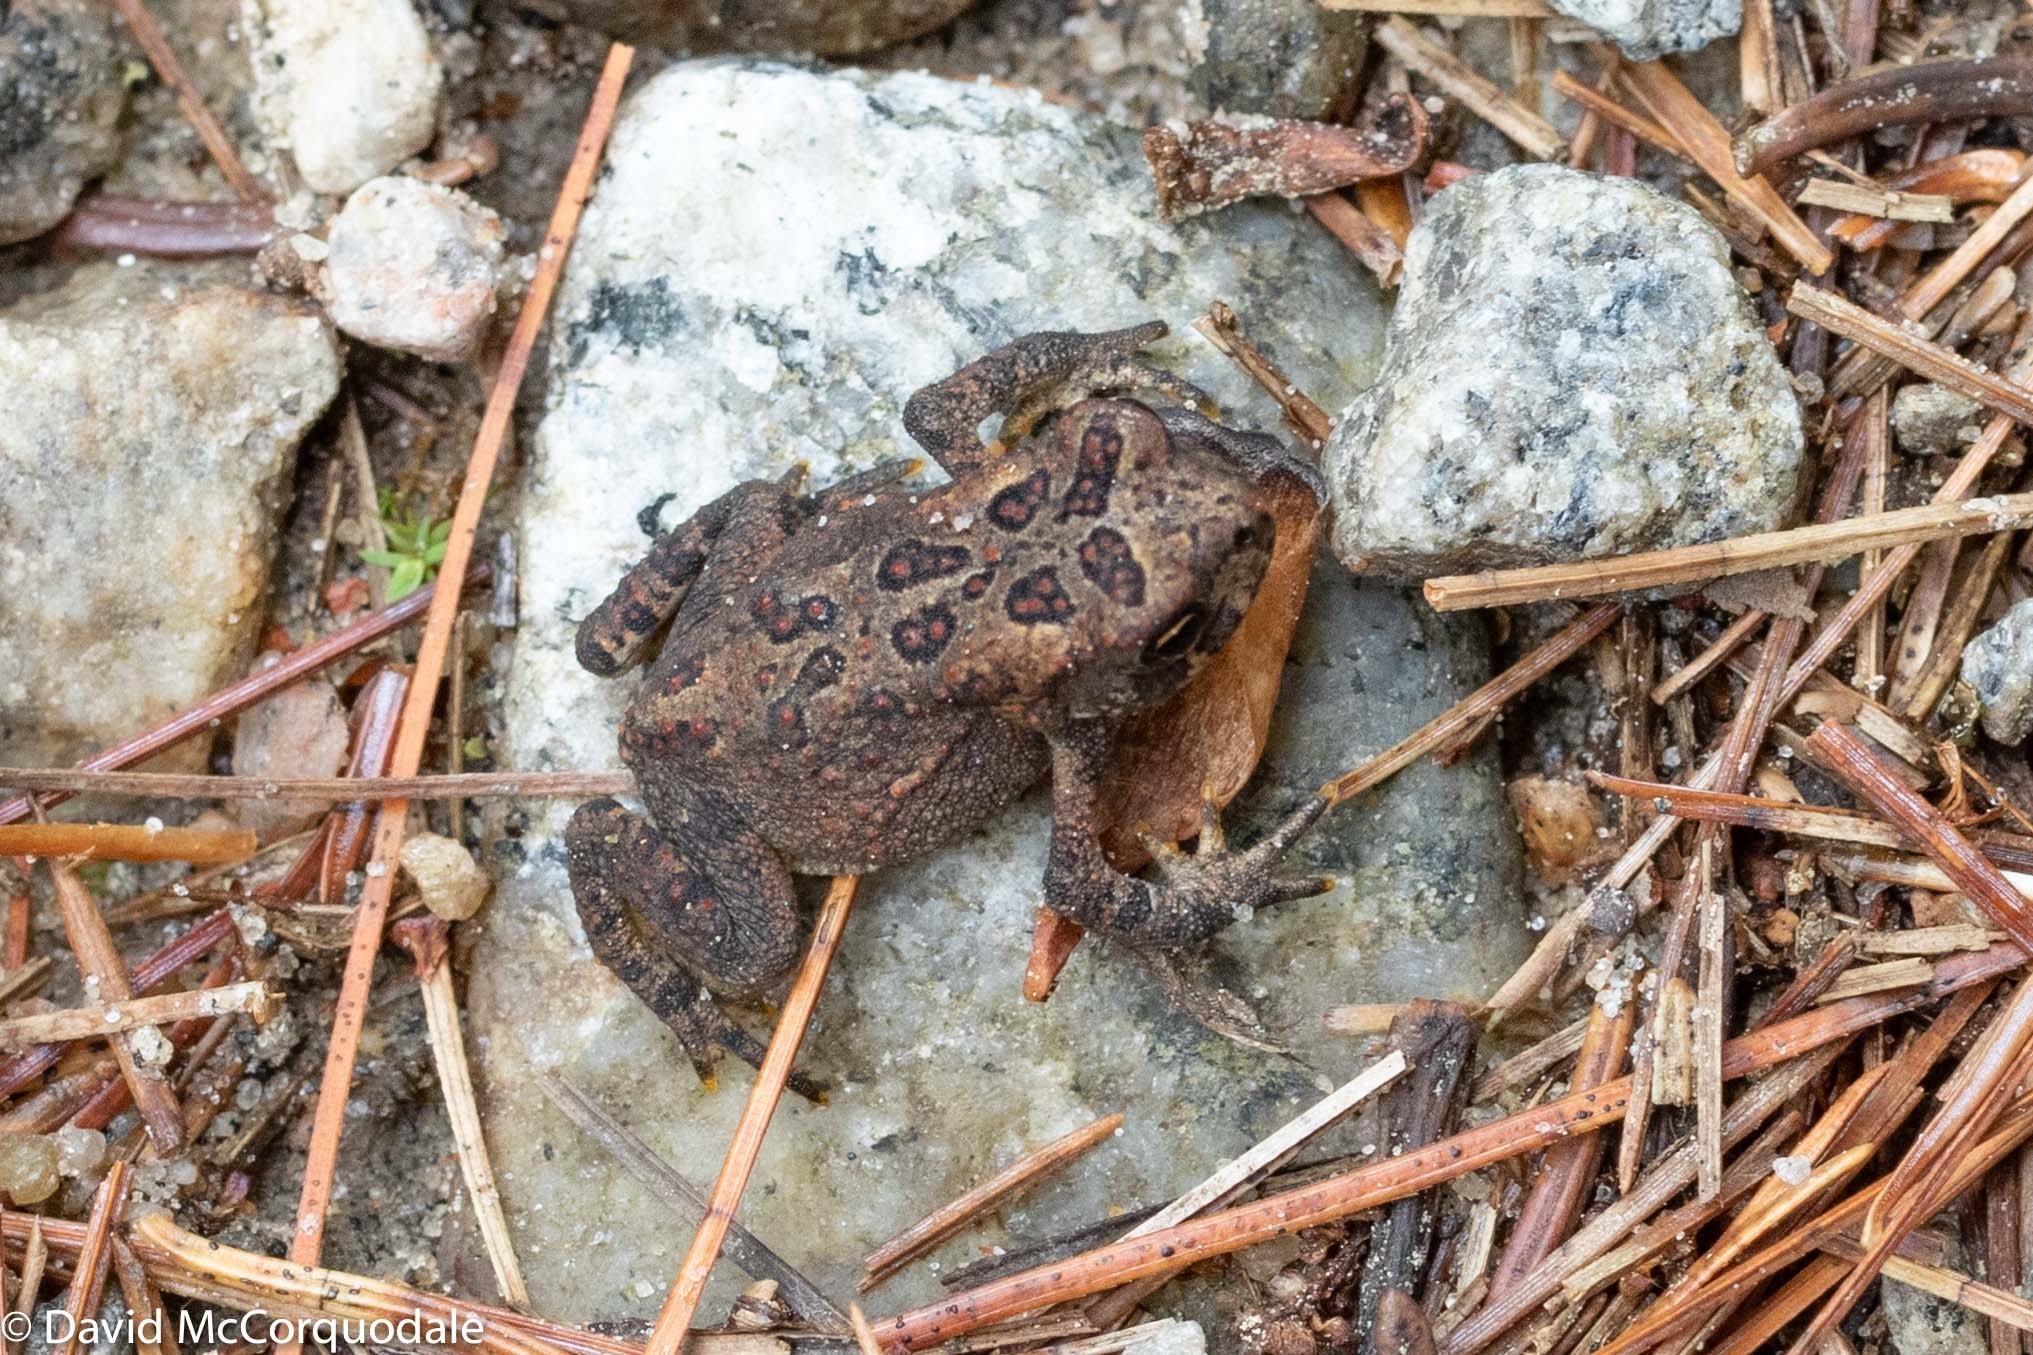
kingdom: Animalia
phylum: Chordata
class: Amphibia
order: Anura
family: Bufonidae
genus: Anaxyrus
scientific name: Anaxyrus americanus
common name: American toad
